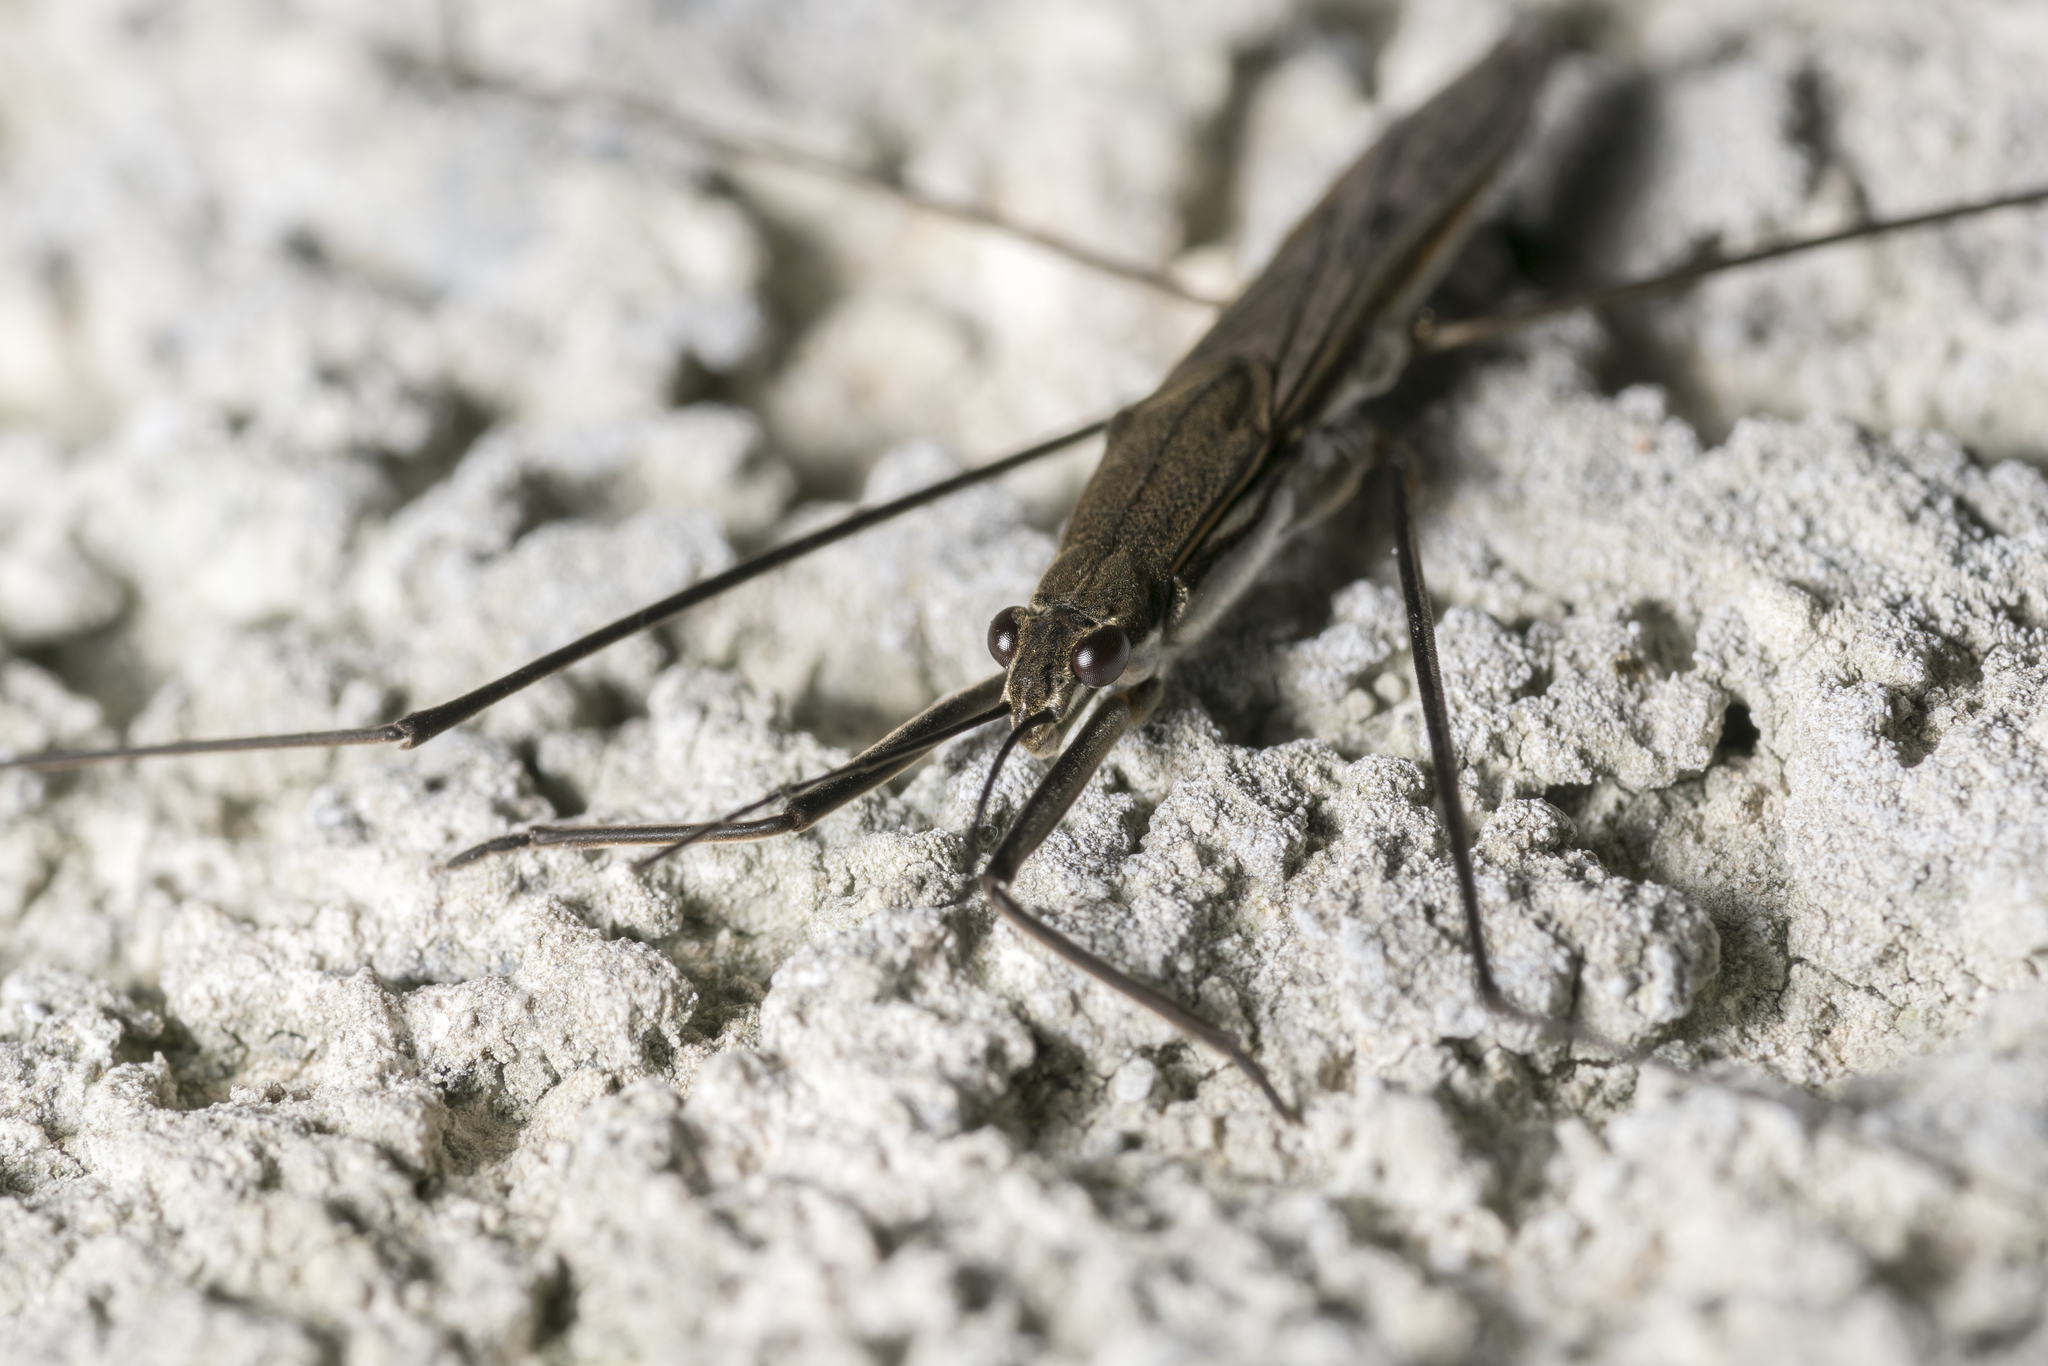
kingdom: Animalia
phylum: Arthropoda
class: Insecta
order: Hemiptera
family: Gerridae
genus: Aquarius
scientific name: Aquarius paludum
